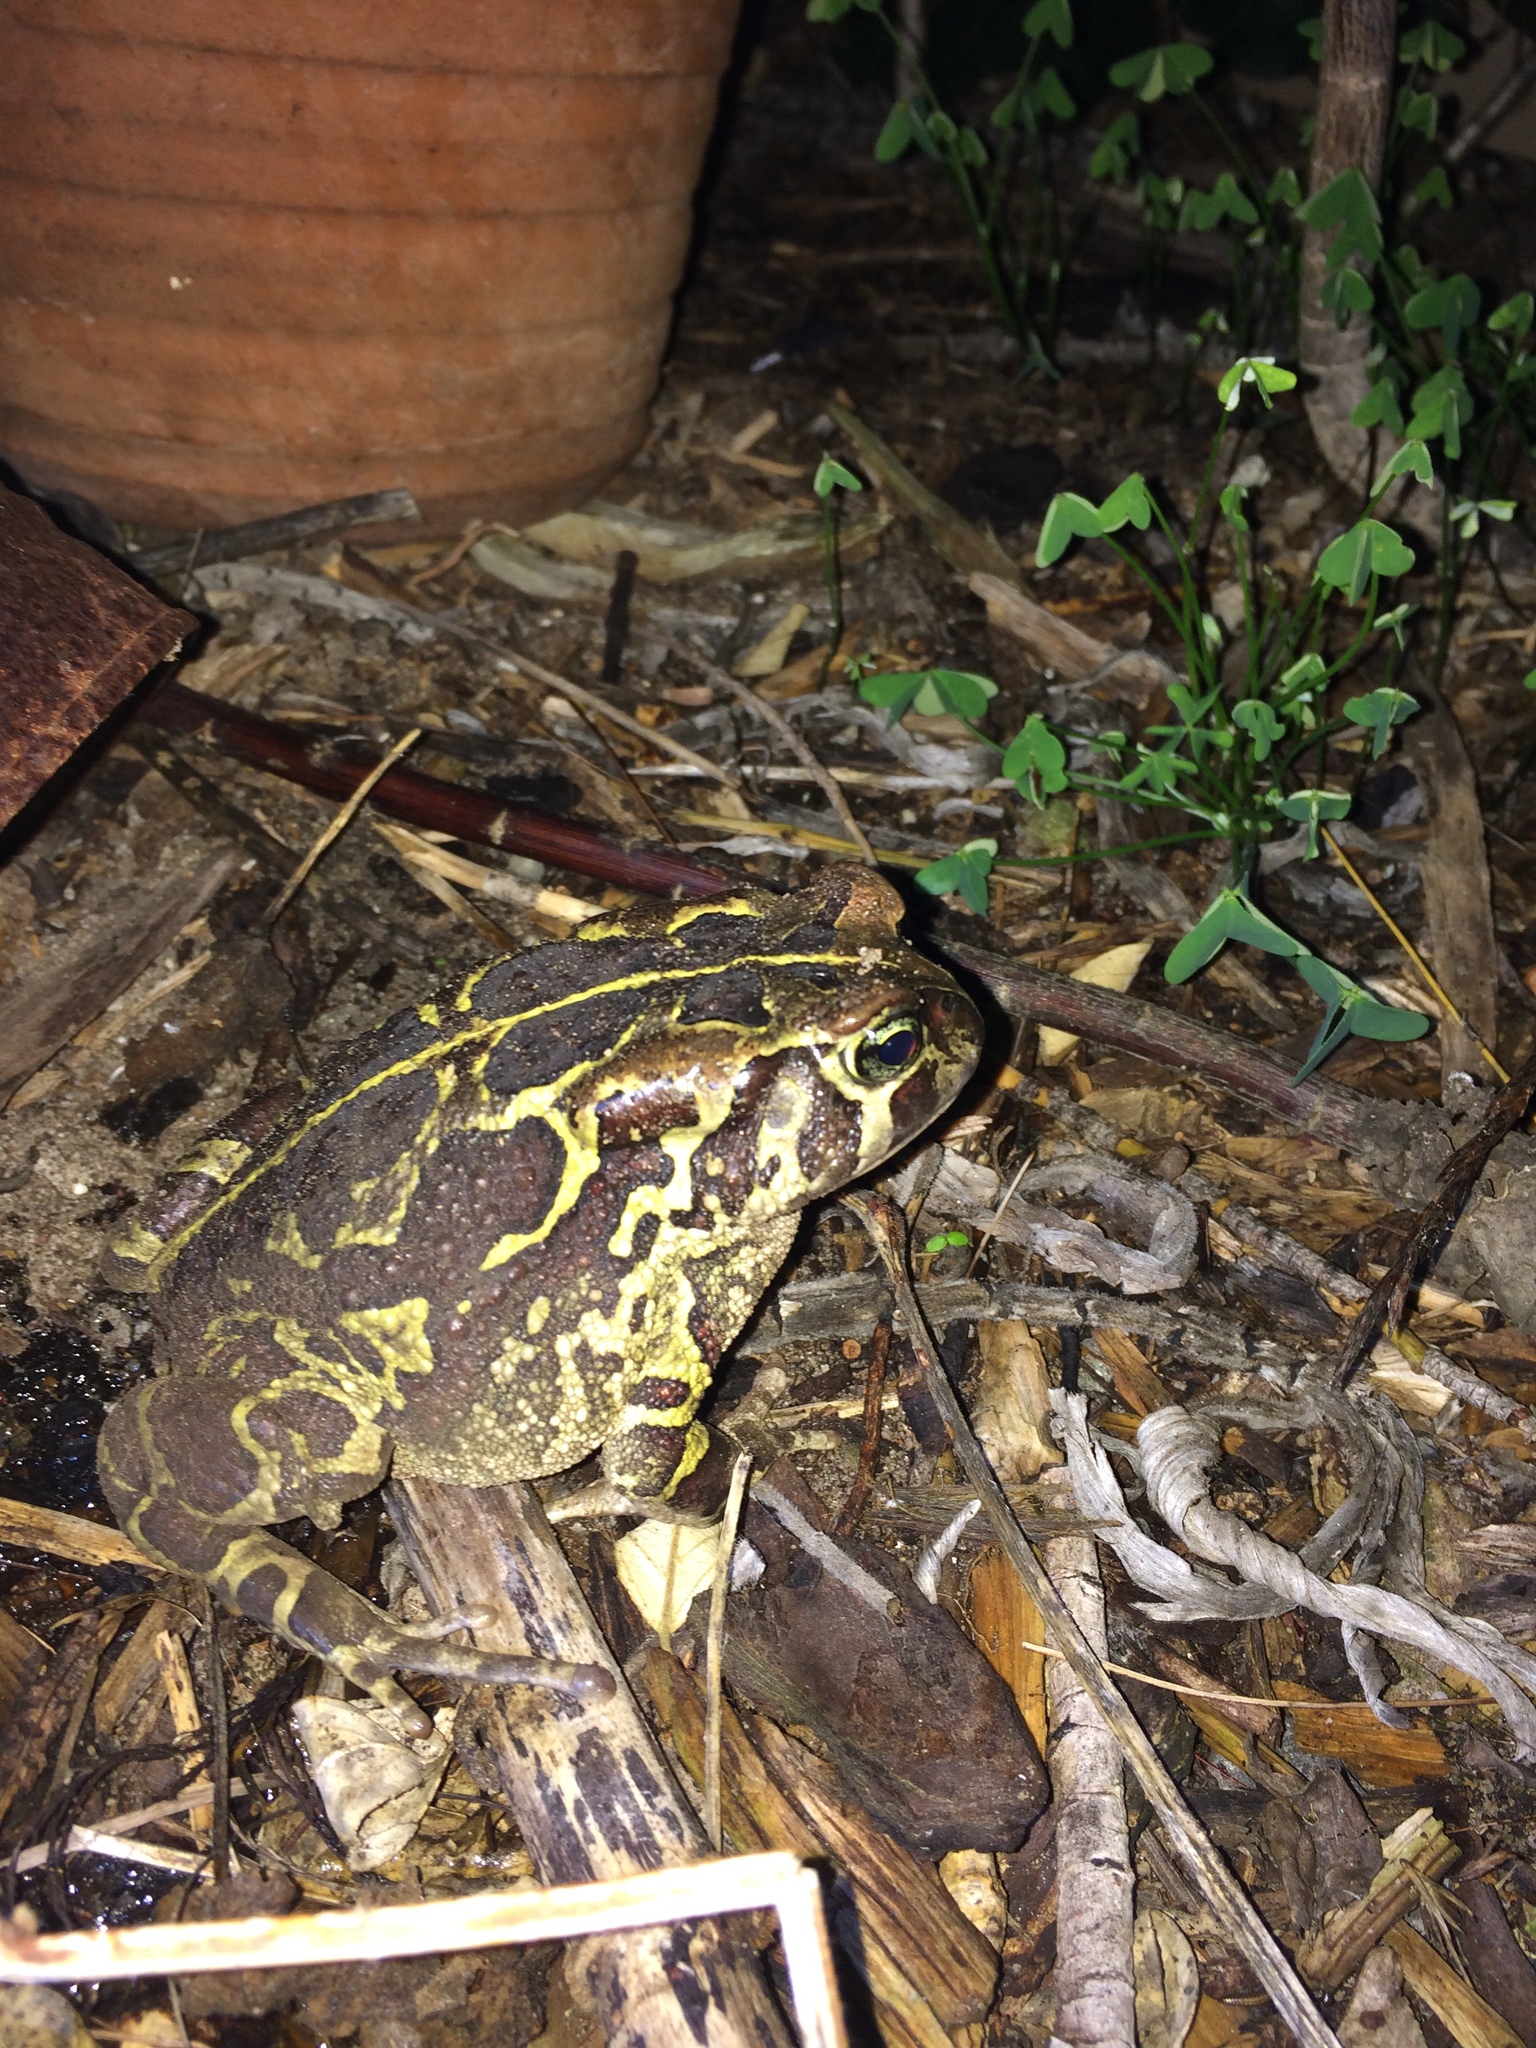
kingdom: Animalia
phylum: Chordata
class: Amphibia
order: Anura
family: Bufonidae
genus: Sclerophrys
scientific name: Sclerophrys pantherina
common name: Panther toad
